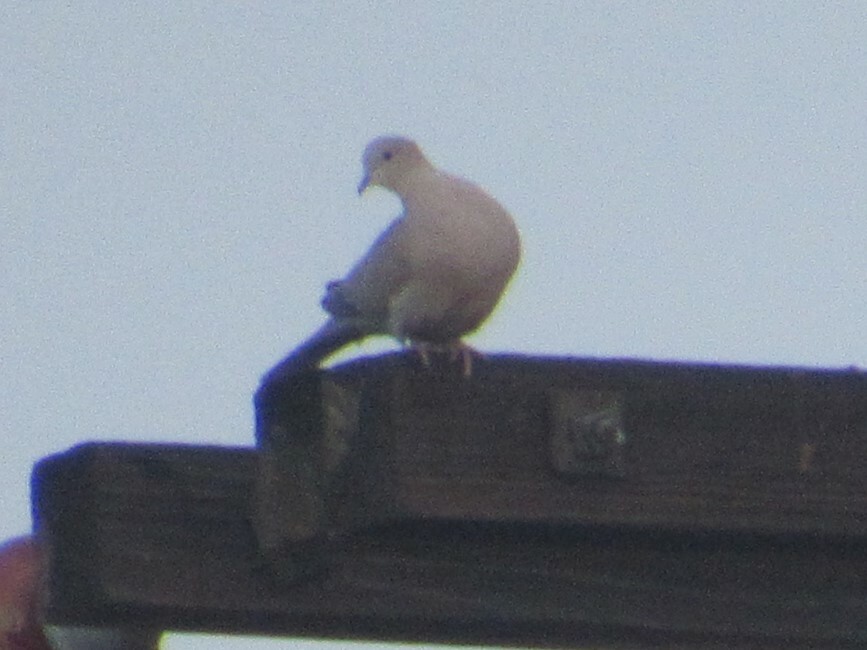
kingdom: Animalia
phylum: Chordata
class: Aves
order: Columbiformes
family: Columbidae
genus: Streptopelia
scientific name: Streptopelia decaocto
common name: Eurasian collared dove
